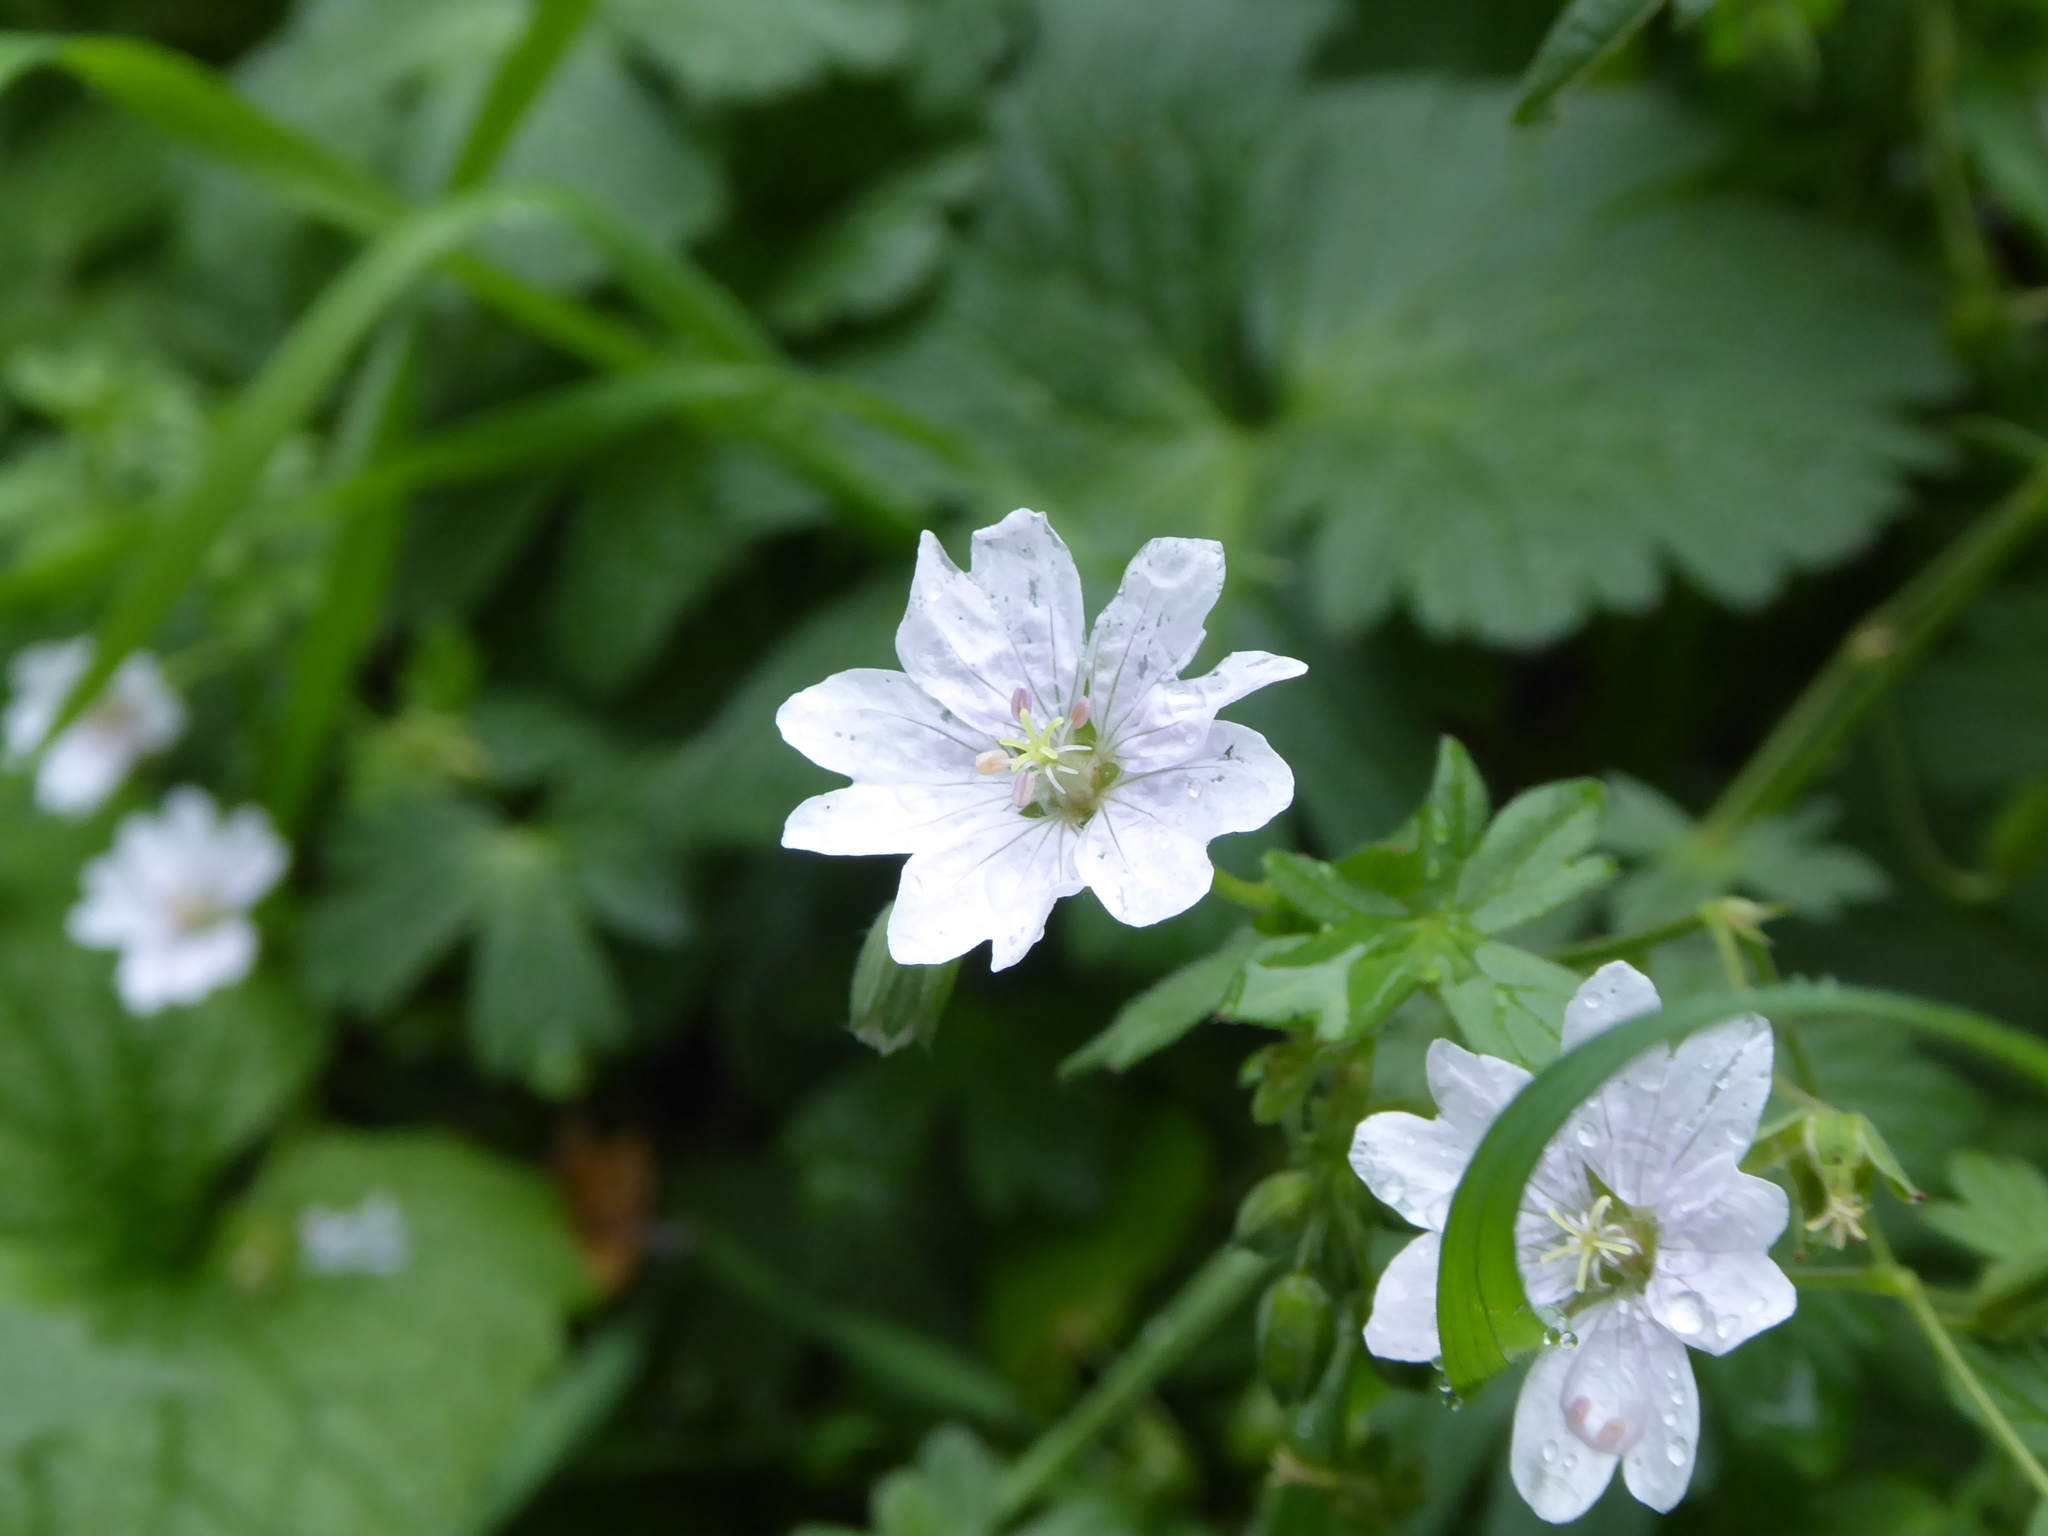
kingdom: Plantae
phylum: Tracheophyta
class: Magnoliopsida
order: Geraniales
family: Geraniaceae
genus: Geranium
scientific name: Geranium pyrenaicum
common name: Hedgerow crane's-bill
